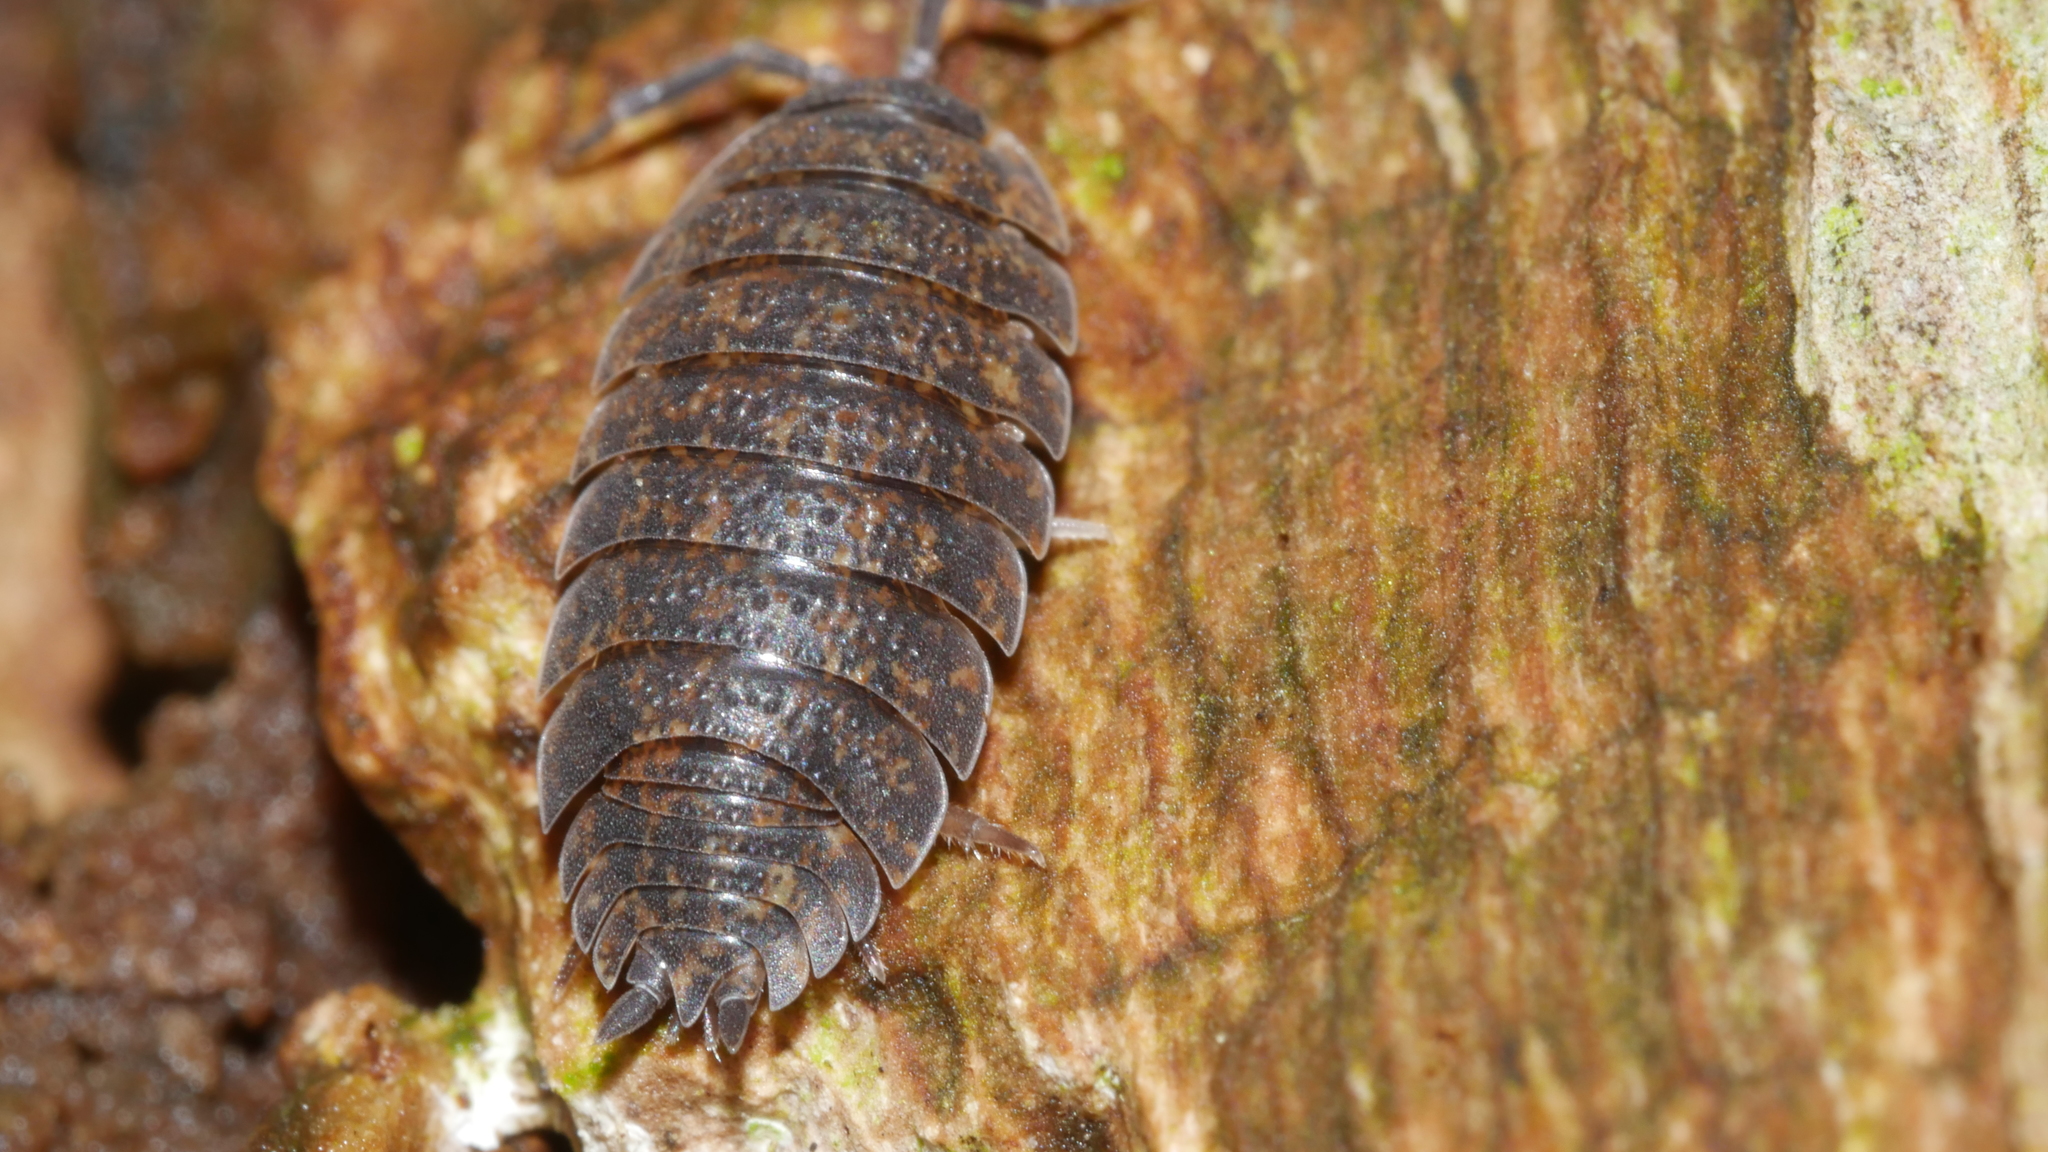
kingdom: Animalia
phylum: Arthropoda
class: Malacostraca
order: Isopoda
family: Porcellionidae
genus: Porcellio
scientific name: Porcellio scaber
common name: Common rough woodlouse
